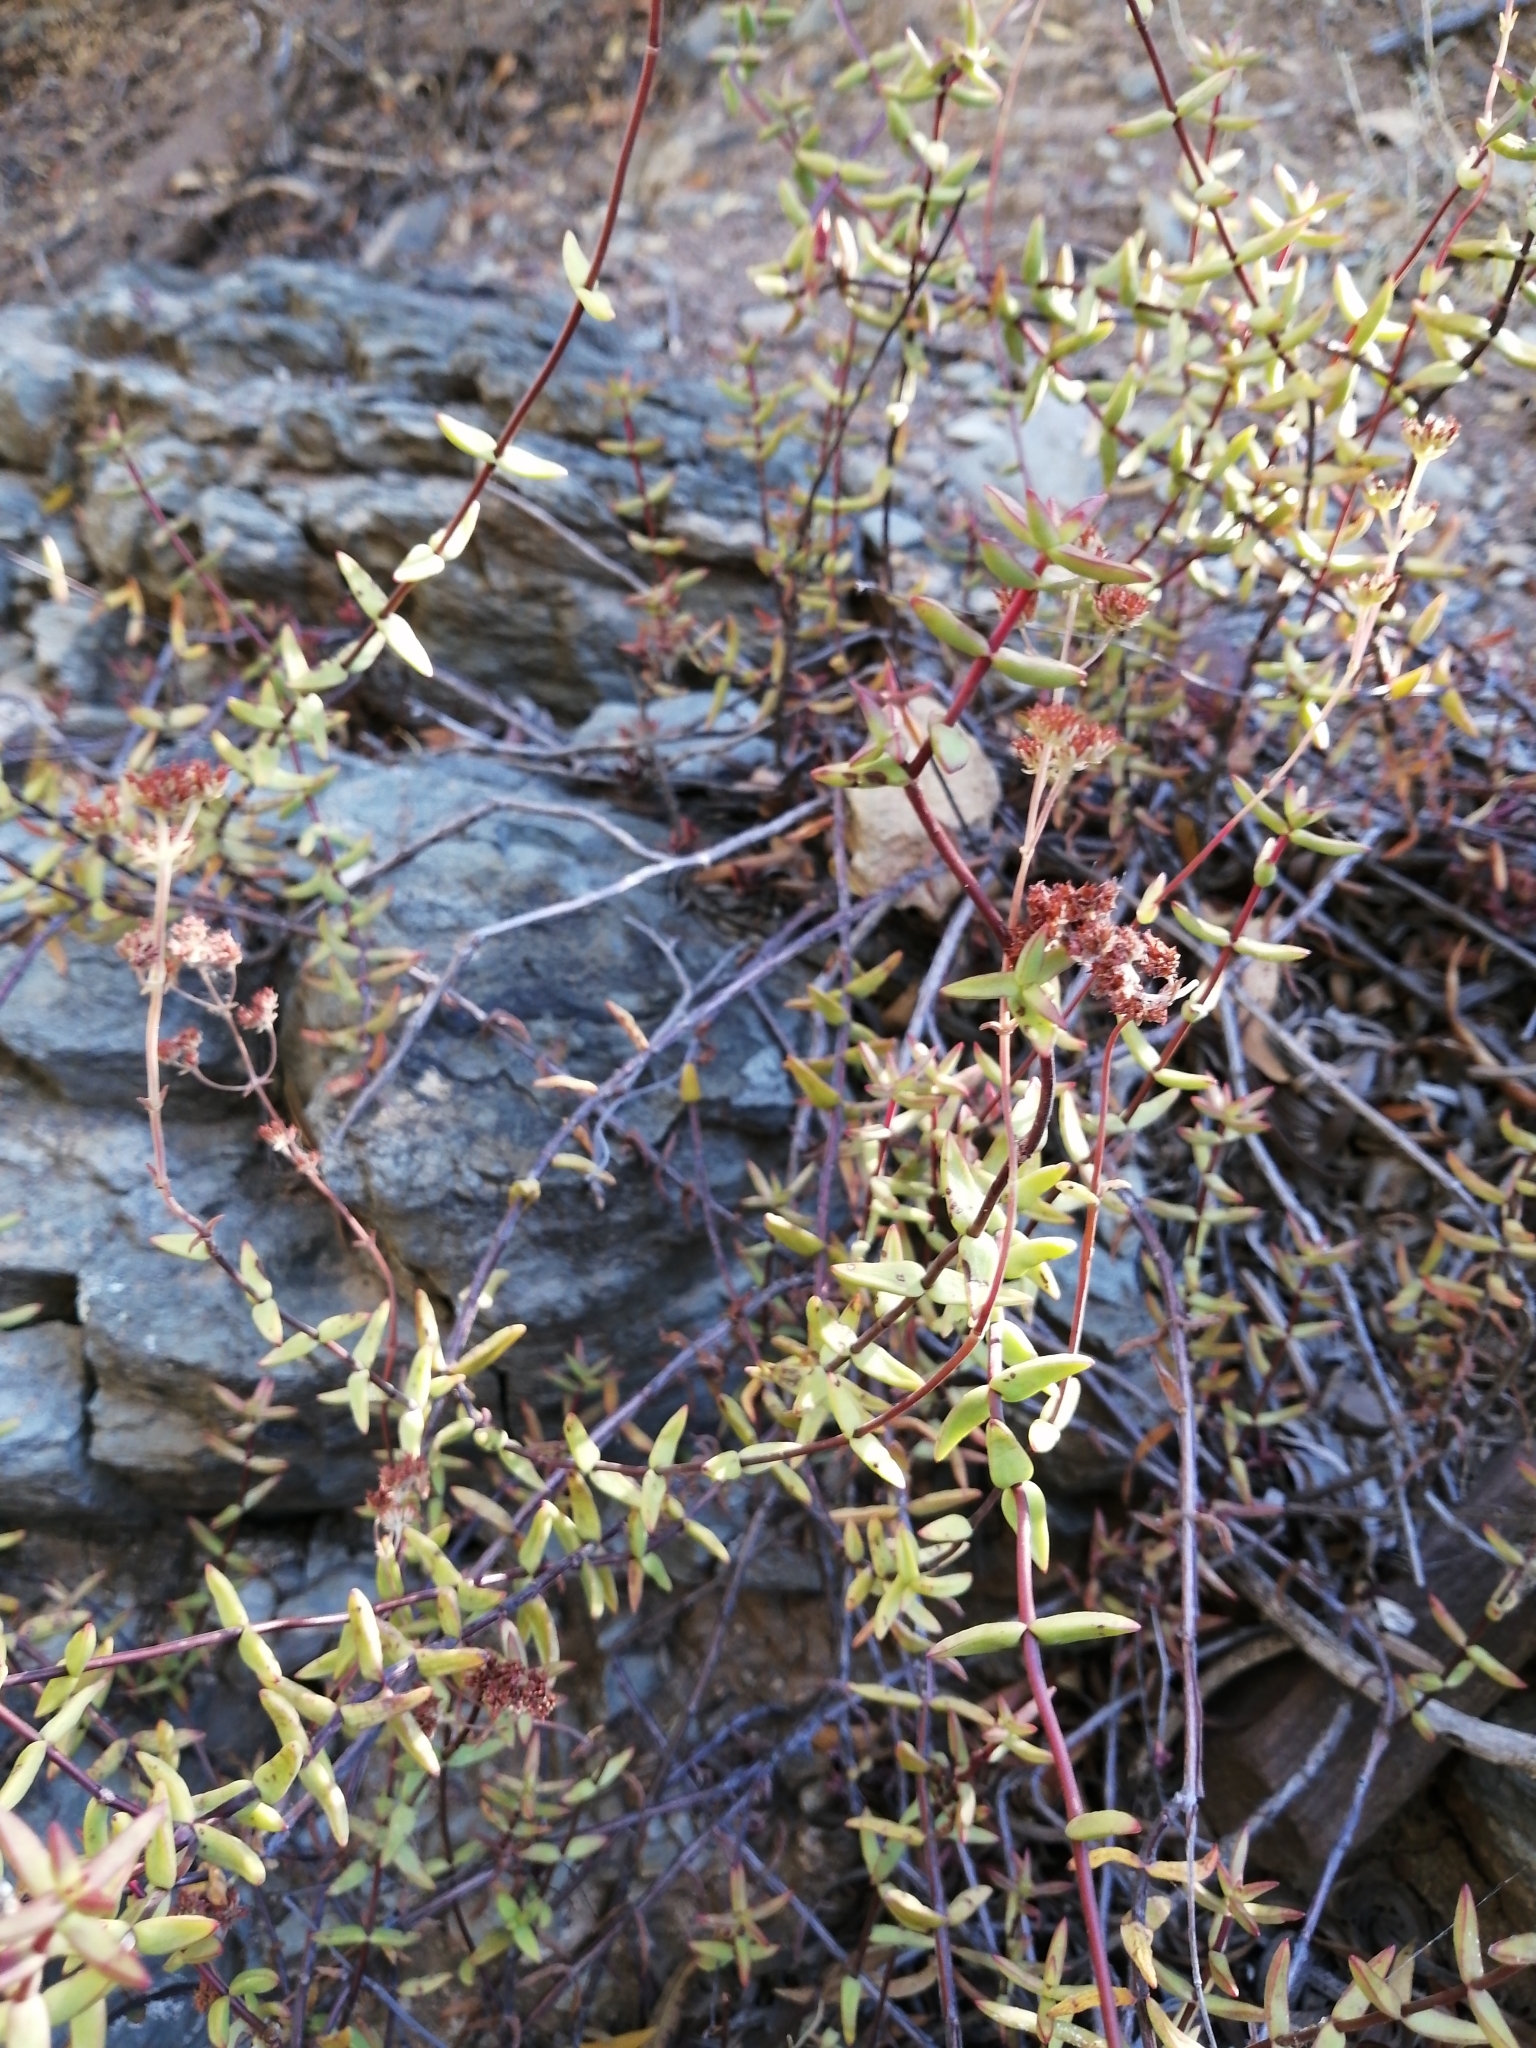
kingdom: Plantae
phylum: Tracheophyta
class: Magnoliopsida
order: Saxifragales
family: Crassulaceae
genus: Crassula
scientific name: Crassula subaphylla
